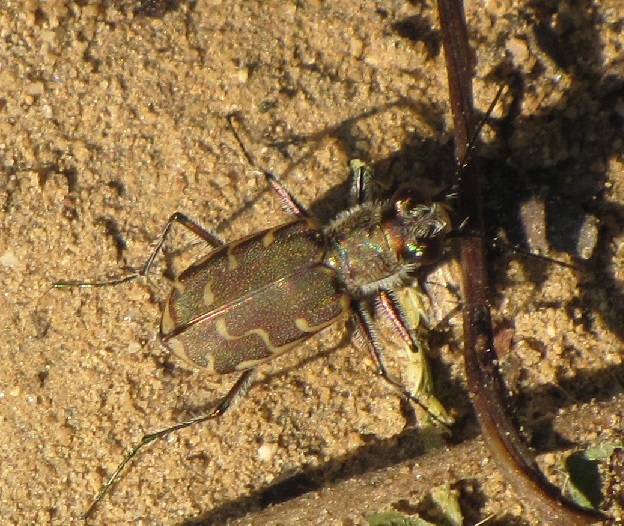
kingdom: Animalia
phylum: Arthropoda
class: Insecta
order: Coleoptera
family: Carabidae
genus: Cicindela
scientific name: Cicindela repanda
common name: Bronzed tiger beetle
